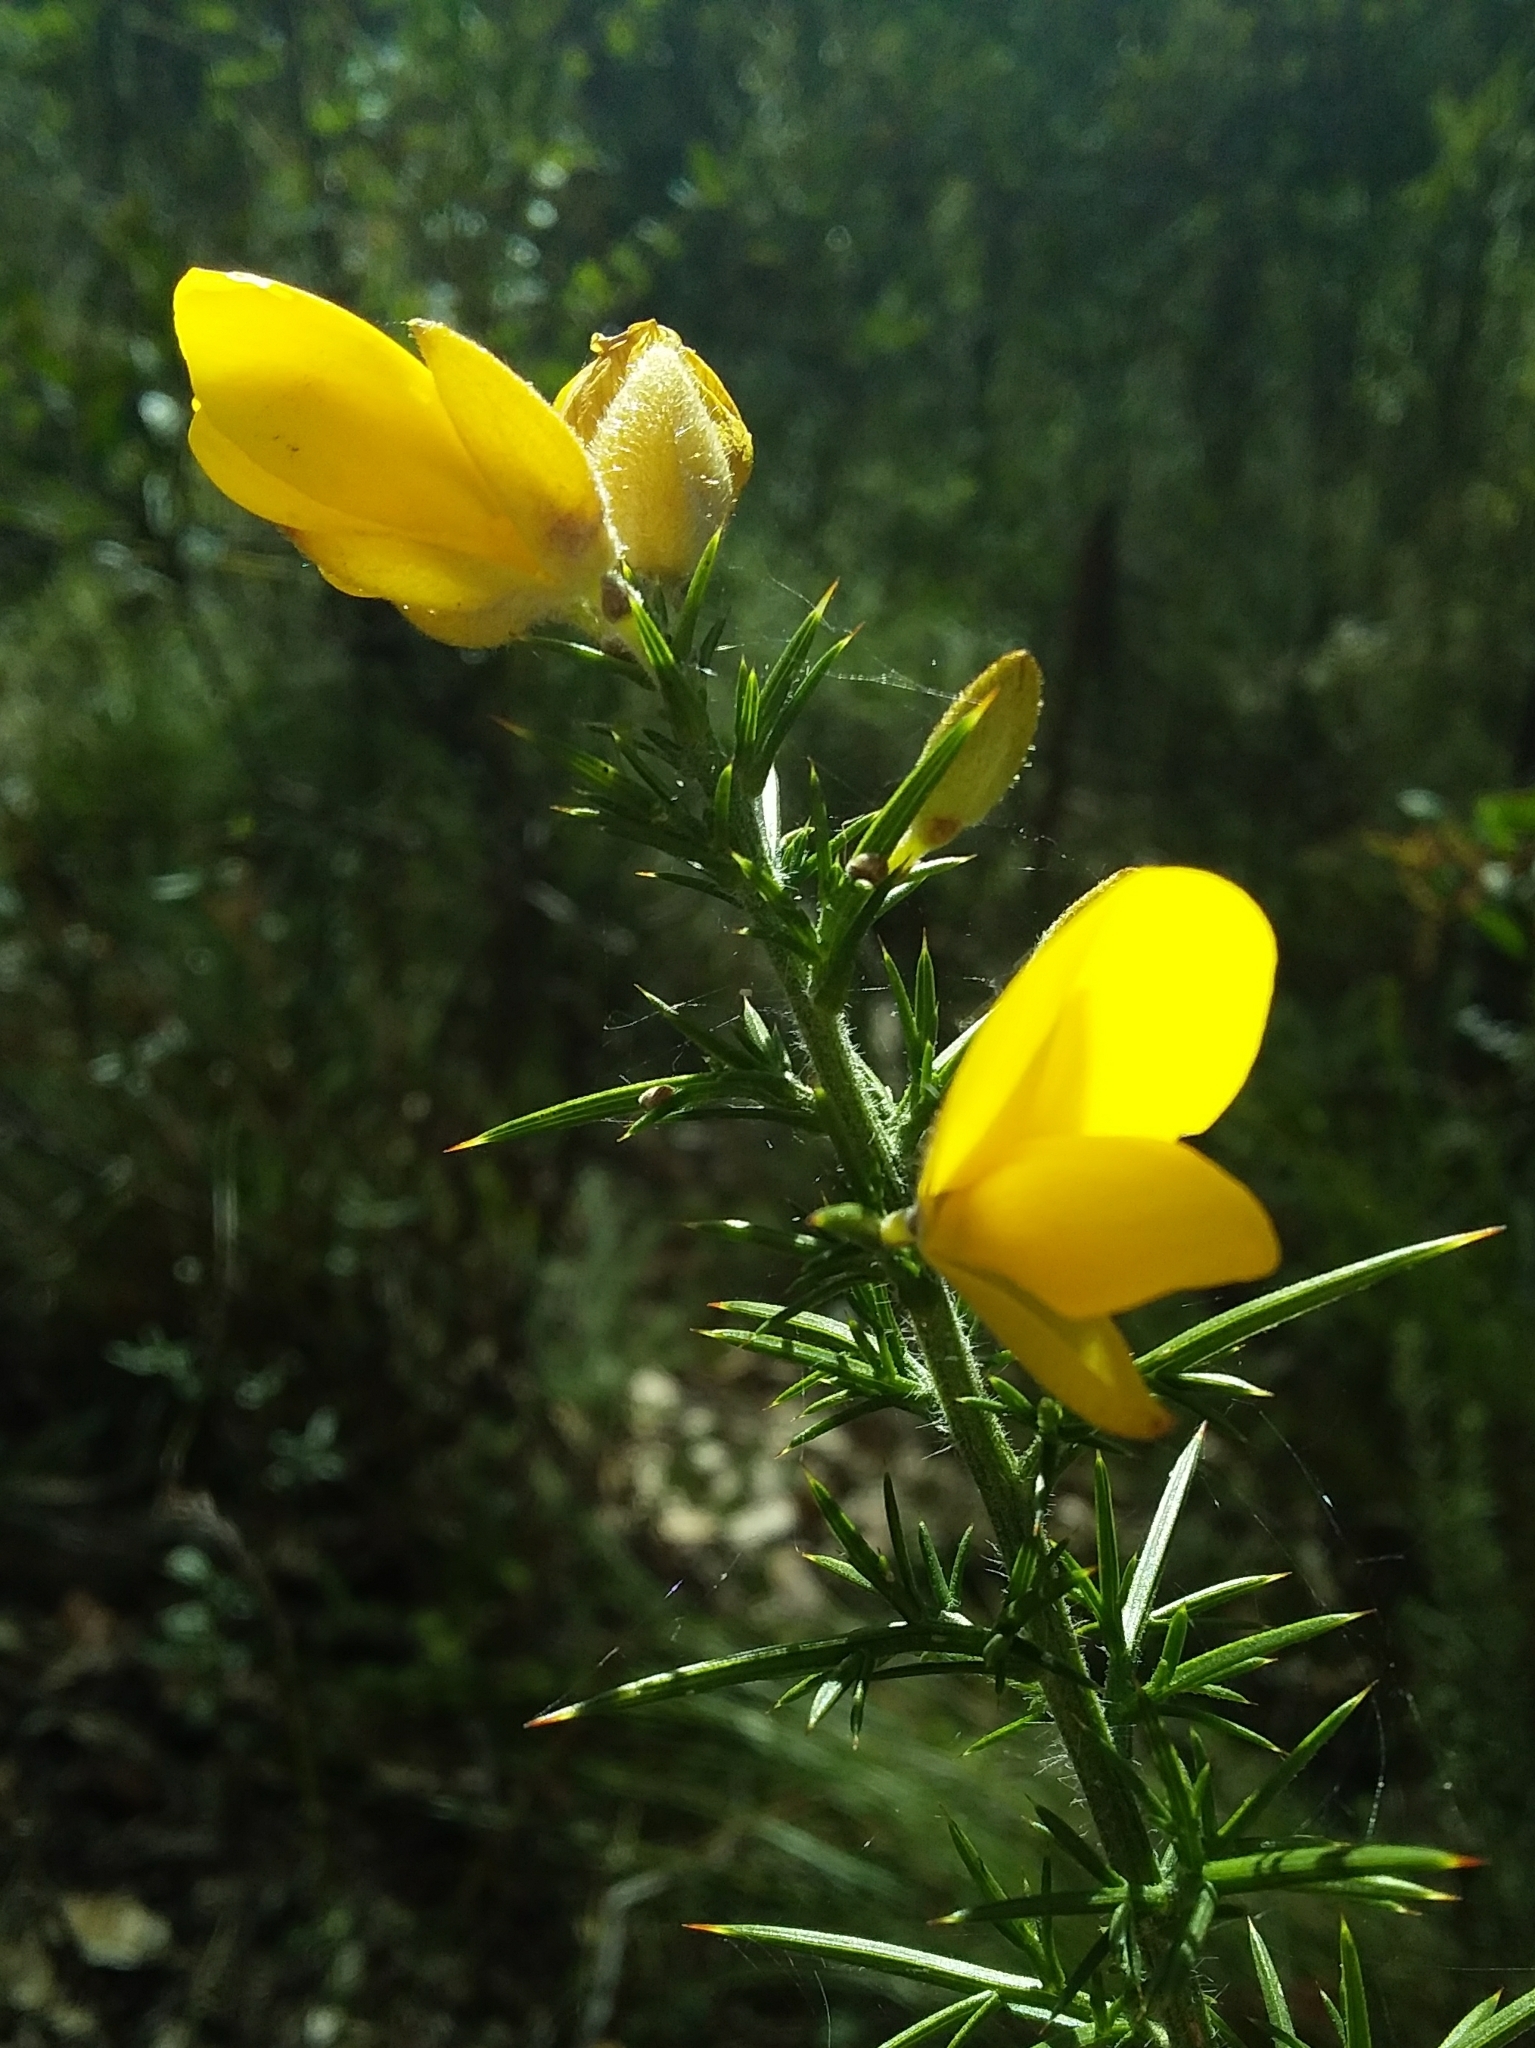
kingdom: Plantae
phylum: Tracheophyta
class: Magnoliopsida
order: Fabales
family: Fabaceae
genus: Ulex
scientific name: Ulex europaeus
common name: Common gorse
